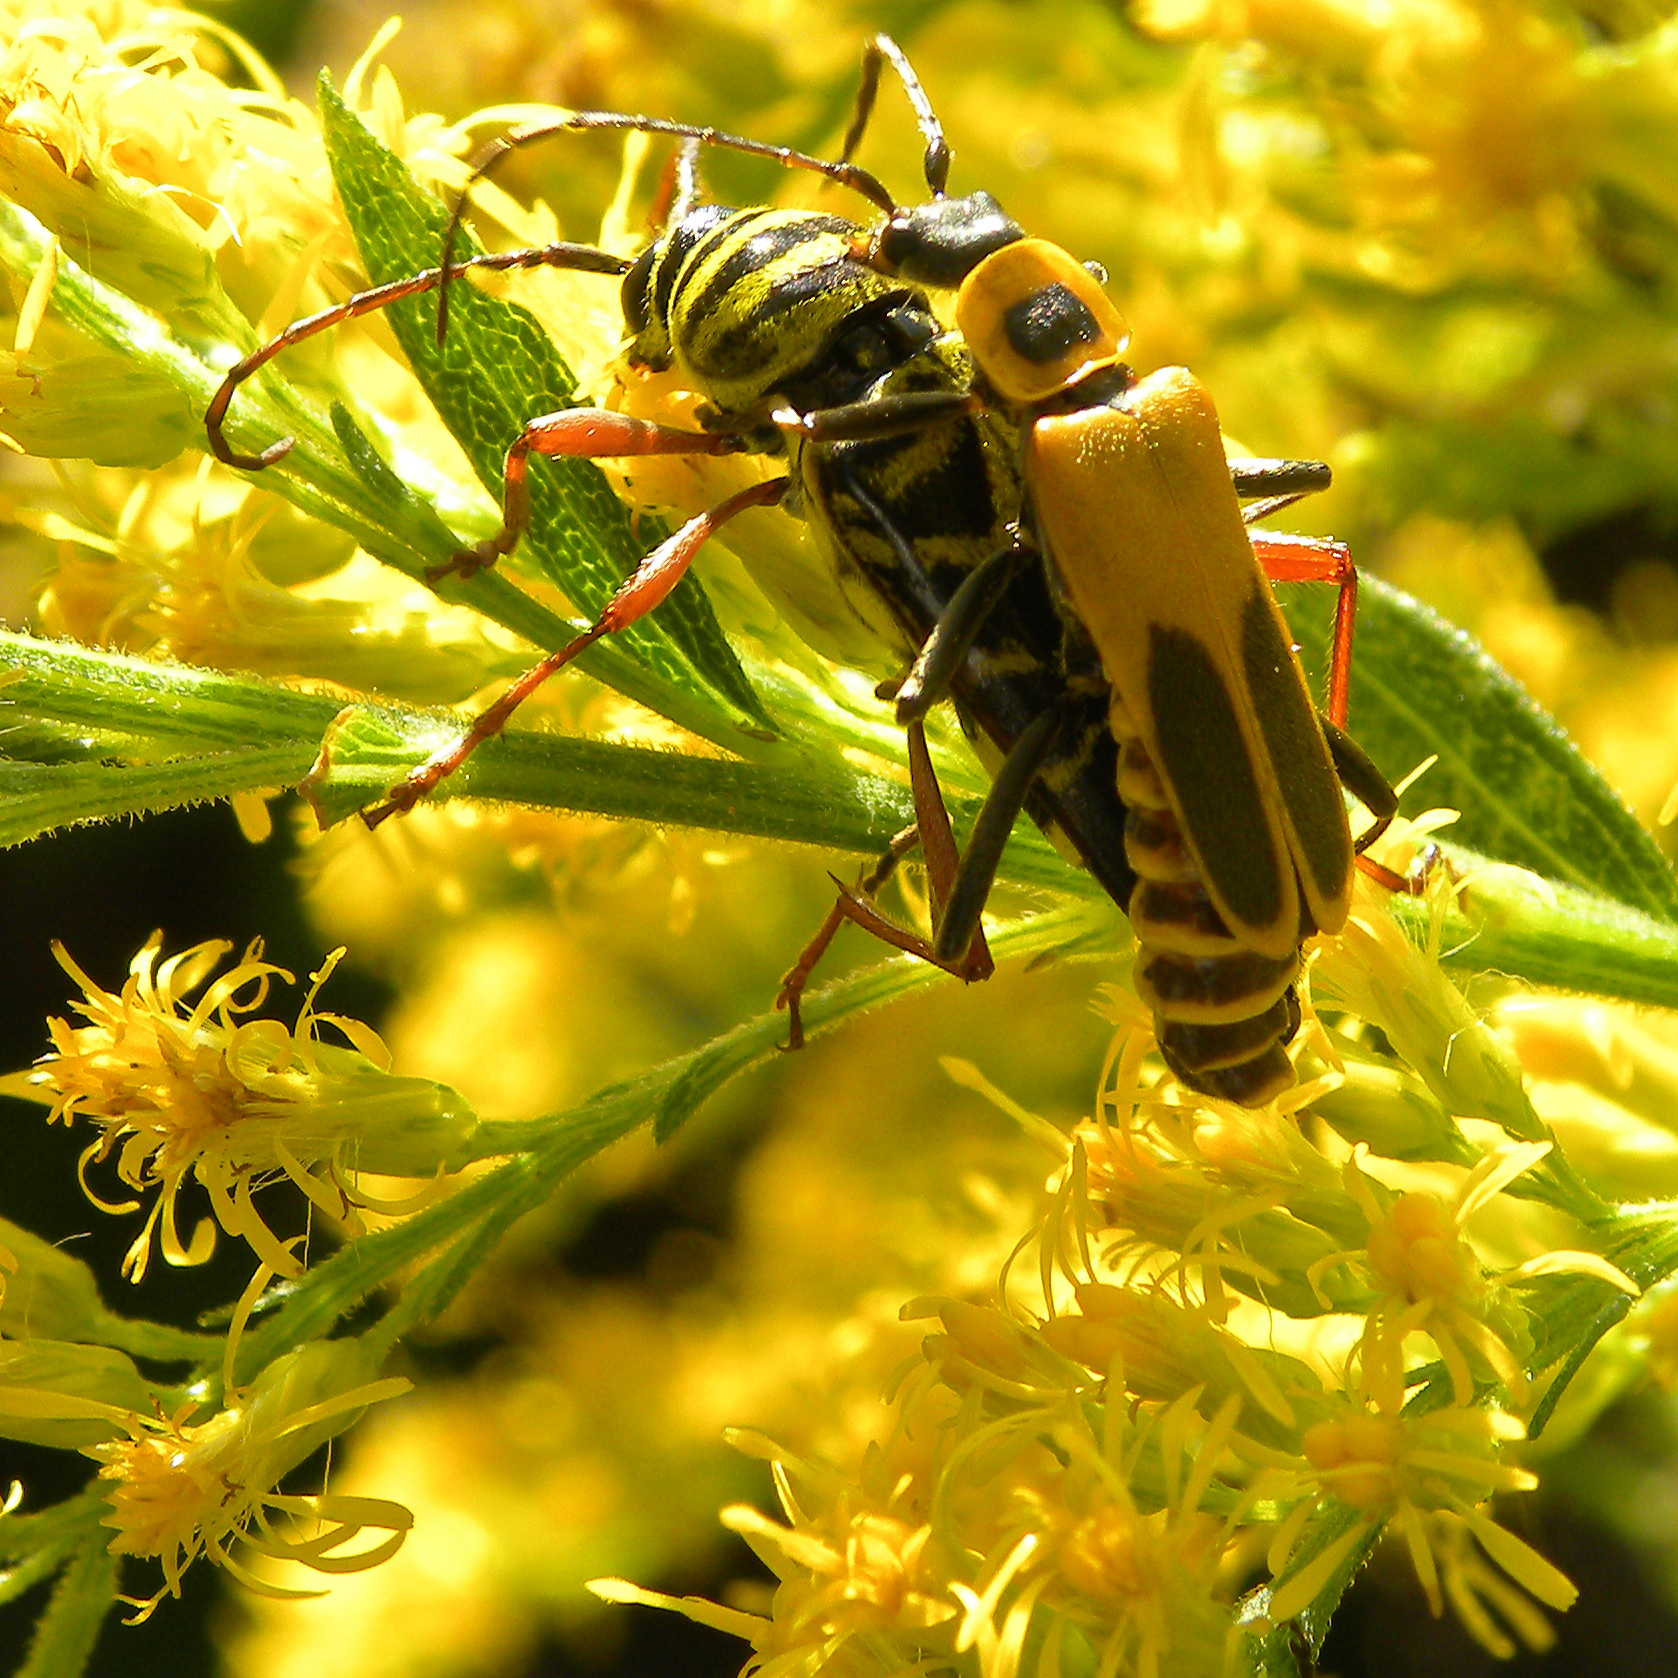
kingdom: Animalia
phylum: Arthropoda
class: Insecta
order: Coleoptera
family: Cerambycidae
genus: Megacyllene
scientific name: Megacyllene robiniae
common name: Locust borer
